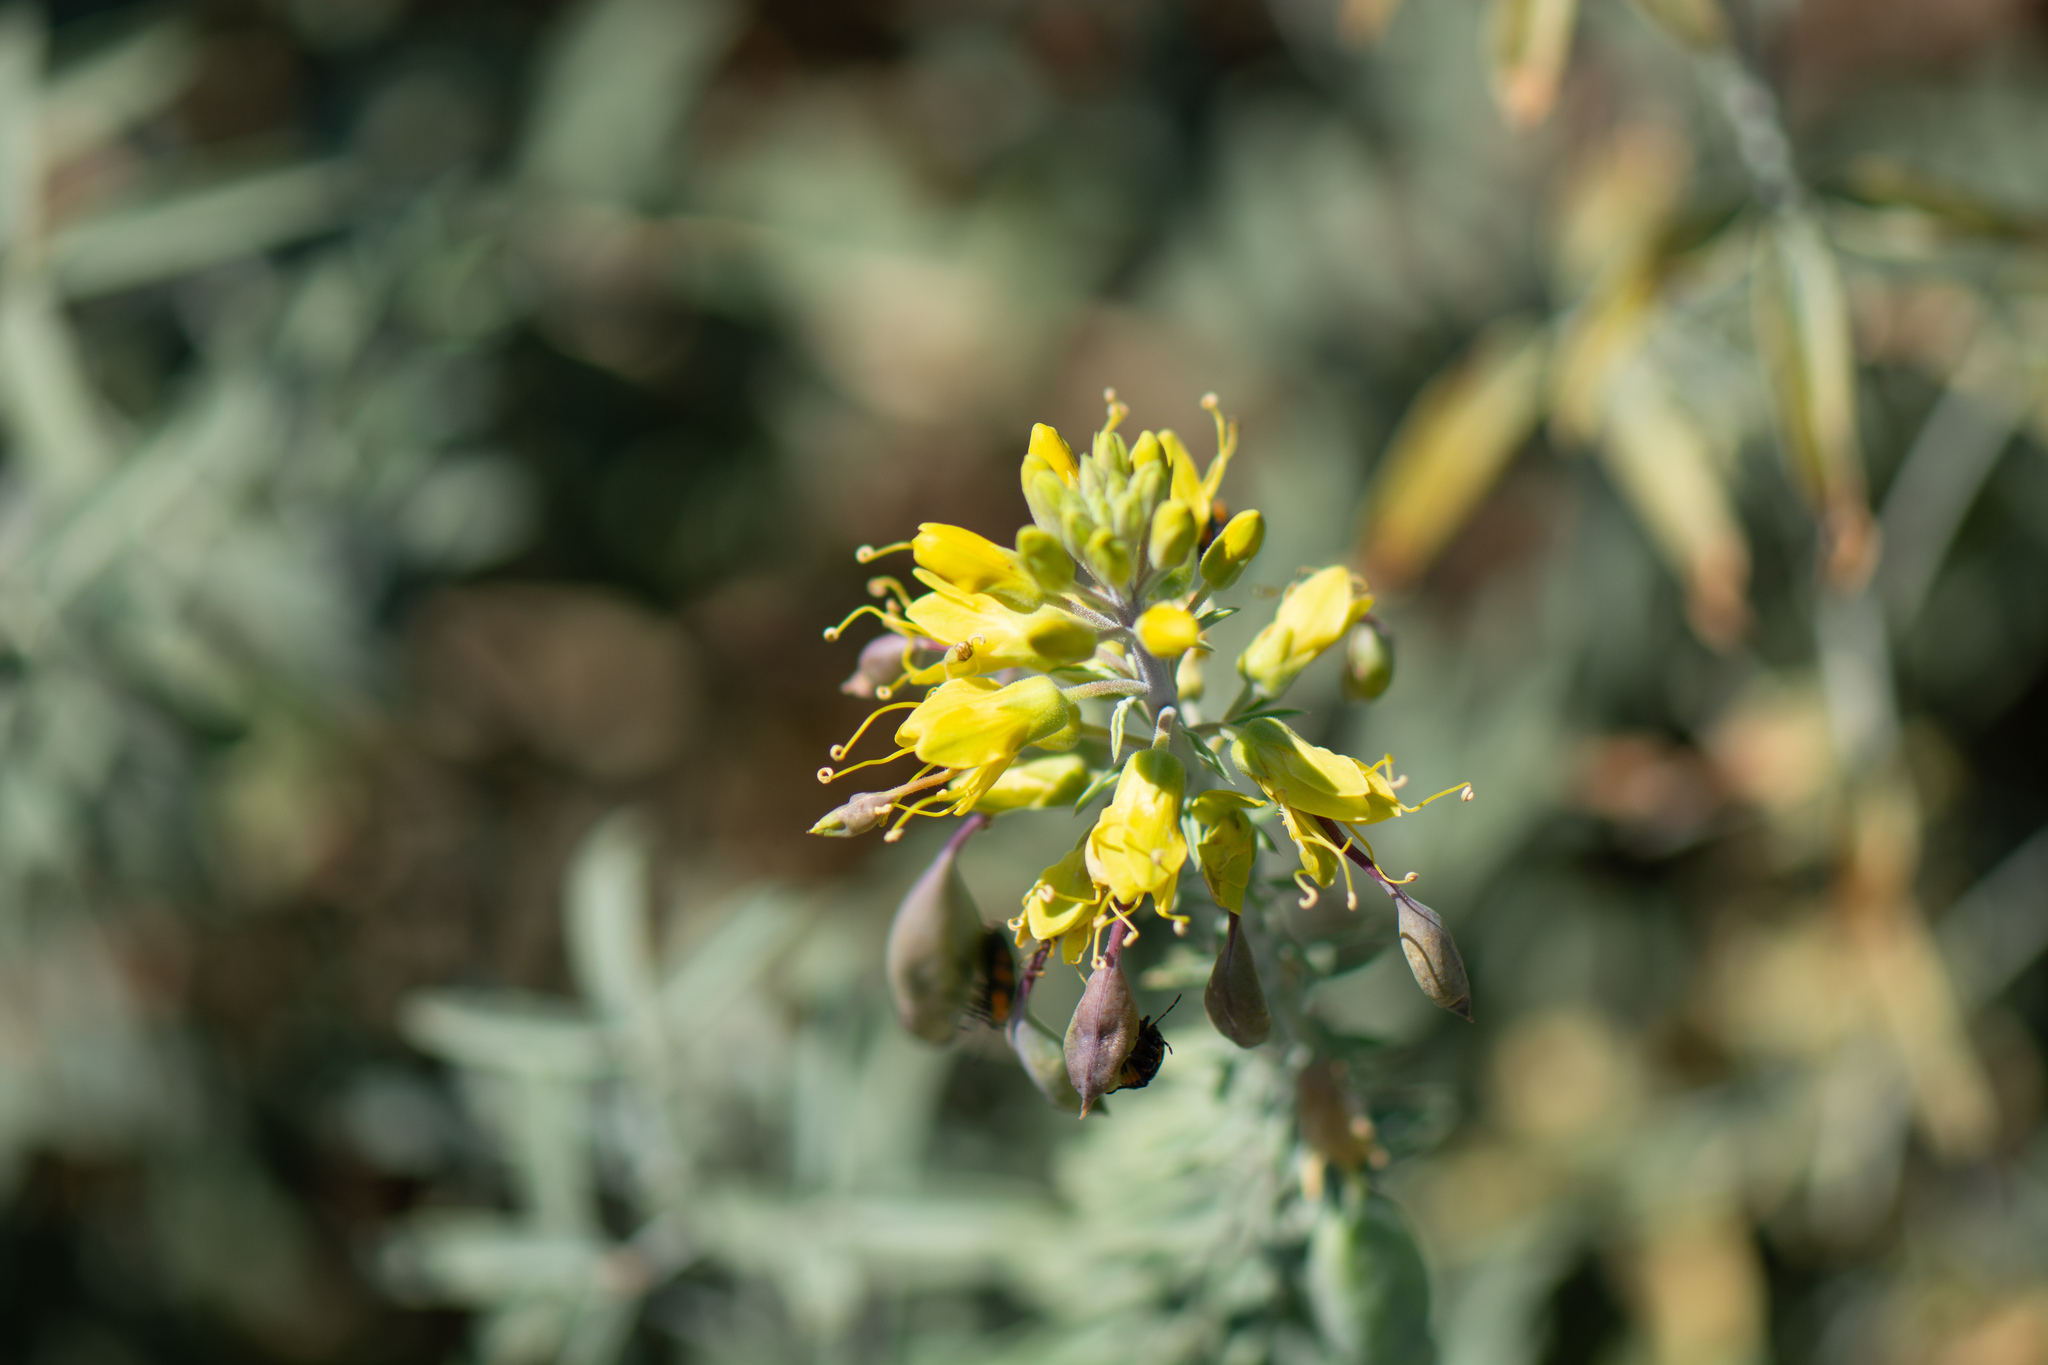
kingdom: Plantae
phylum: Tracheophyta
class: Magnoliopsida
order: Brassicales
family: Cleomaceae
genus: Cleomella
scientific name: Cleomella arborea
